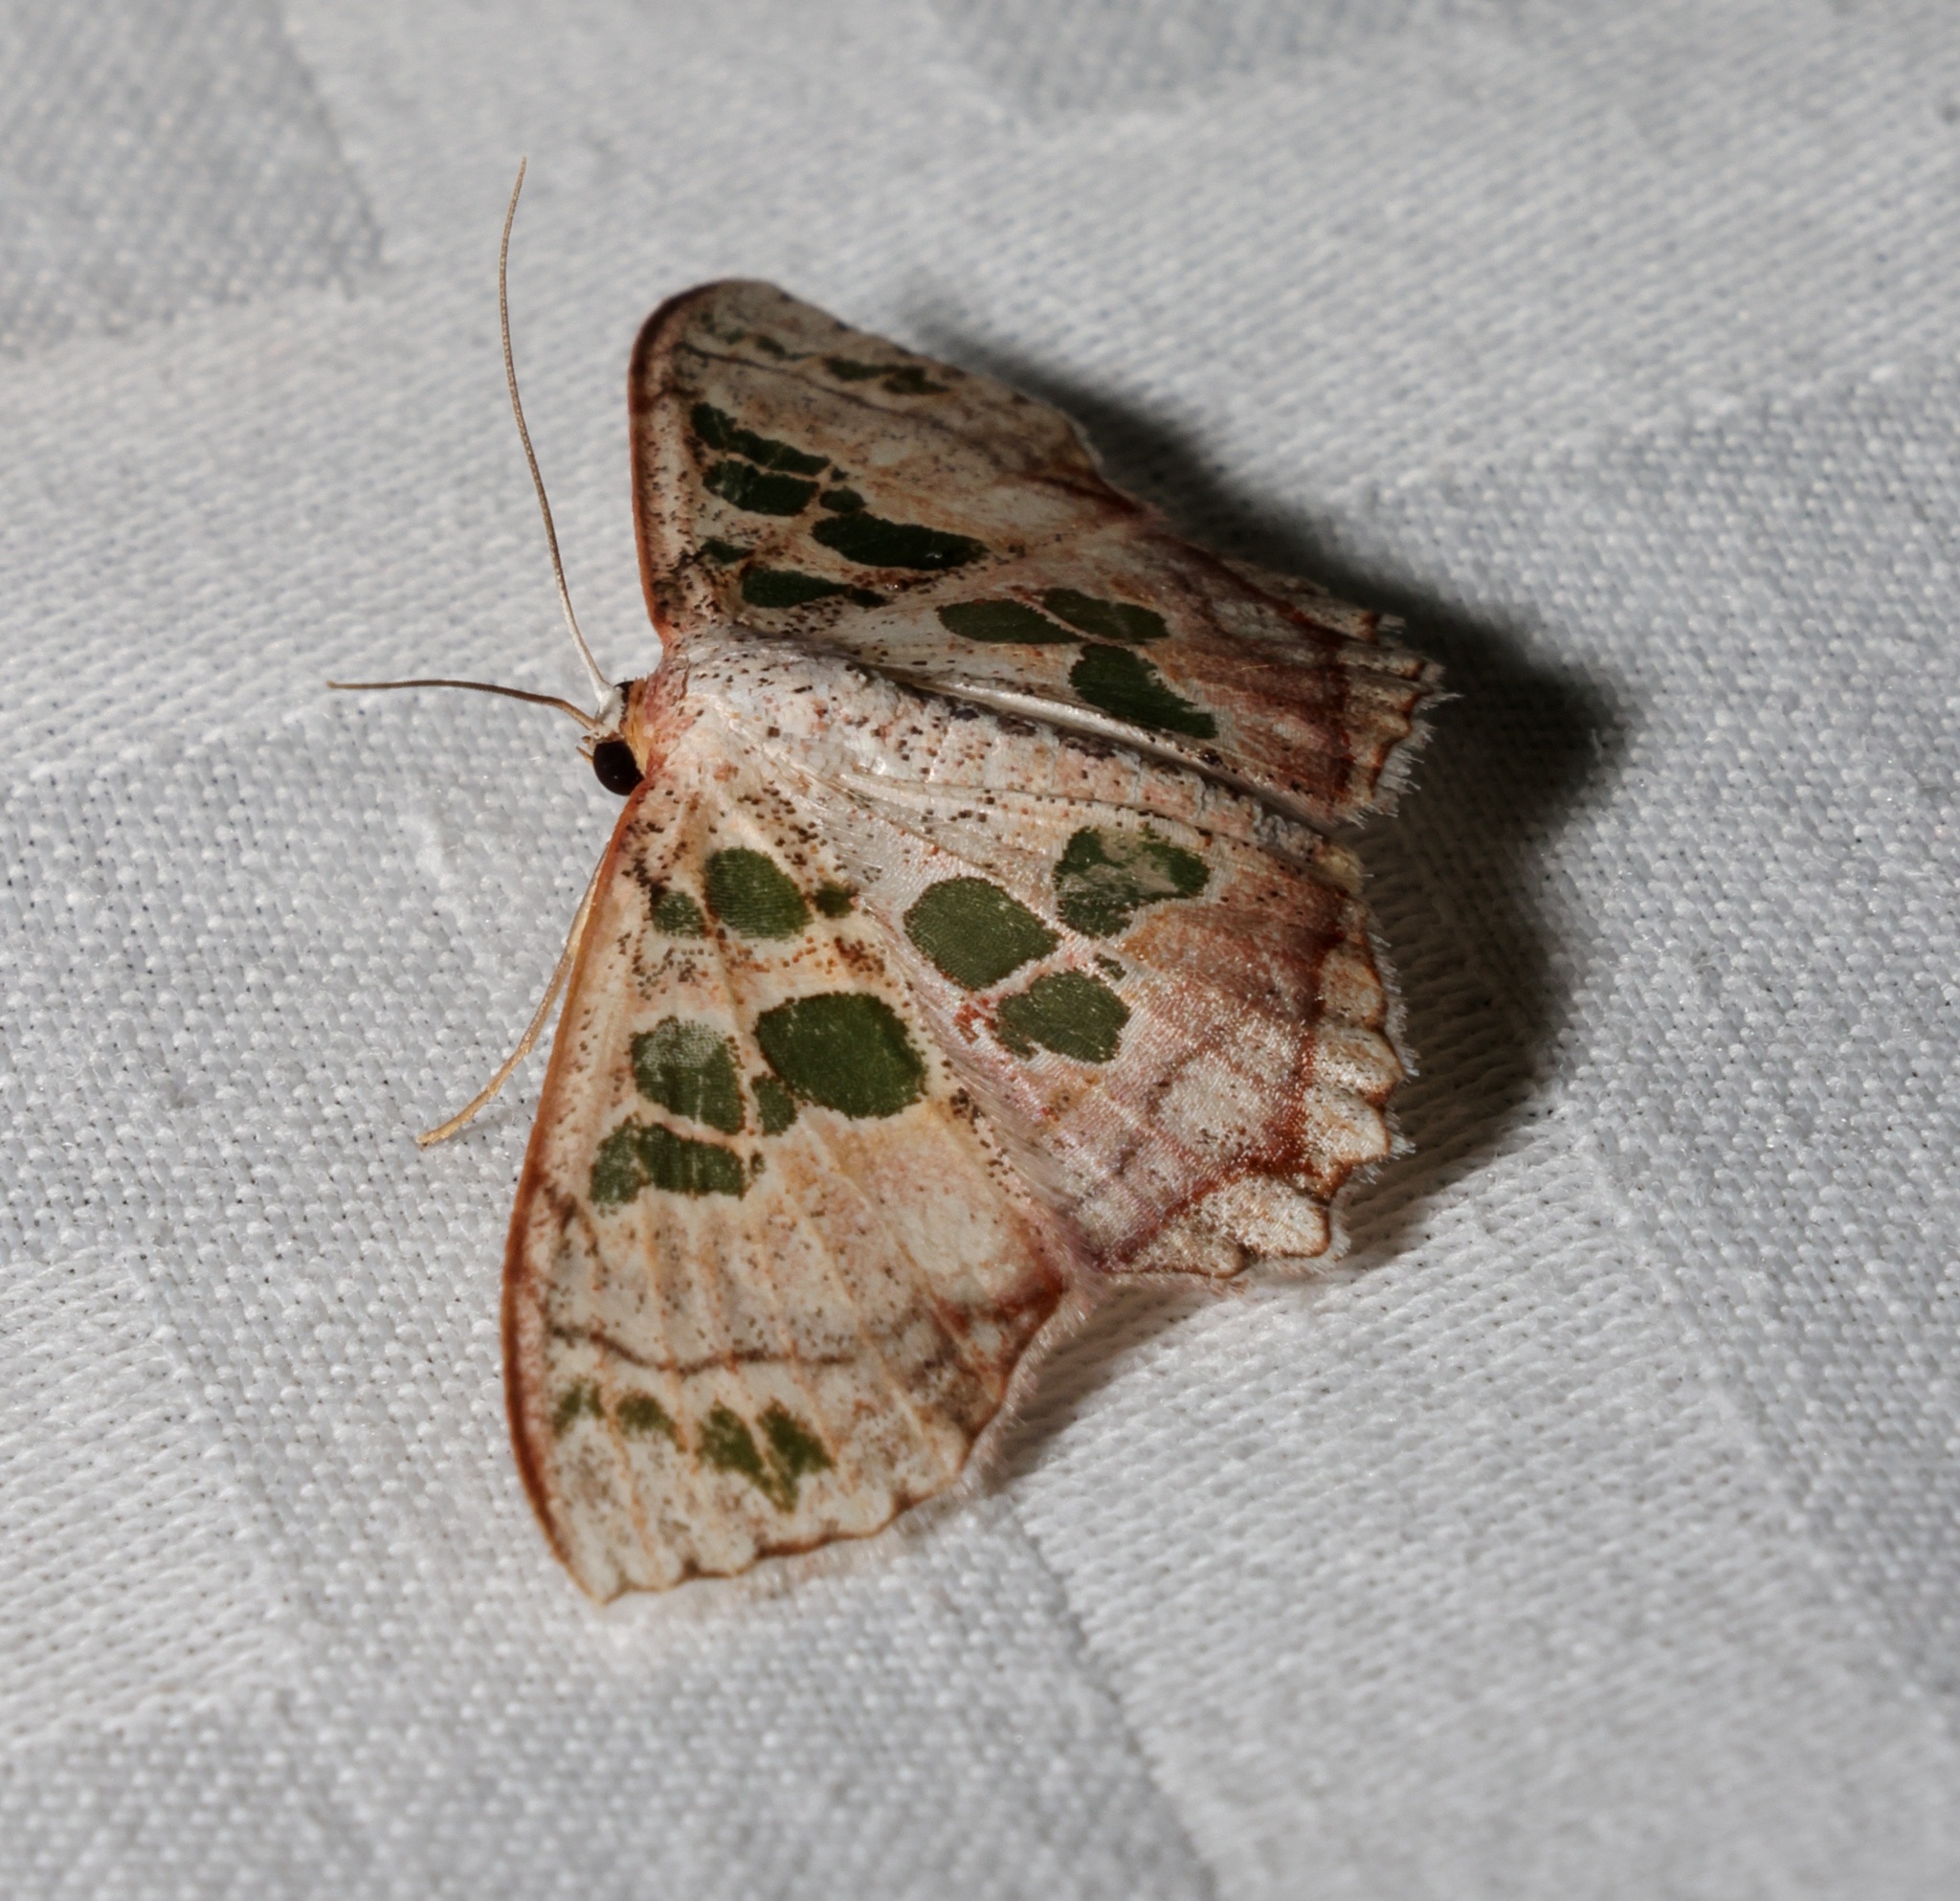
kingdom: Animalia
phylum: Arthropoda
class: Insecta
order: Lepidoptera
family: Geometridae
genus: Scopula
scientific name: Scopula
